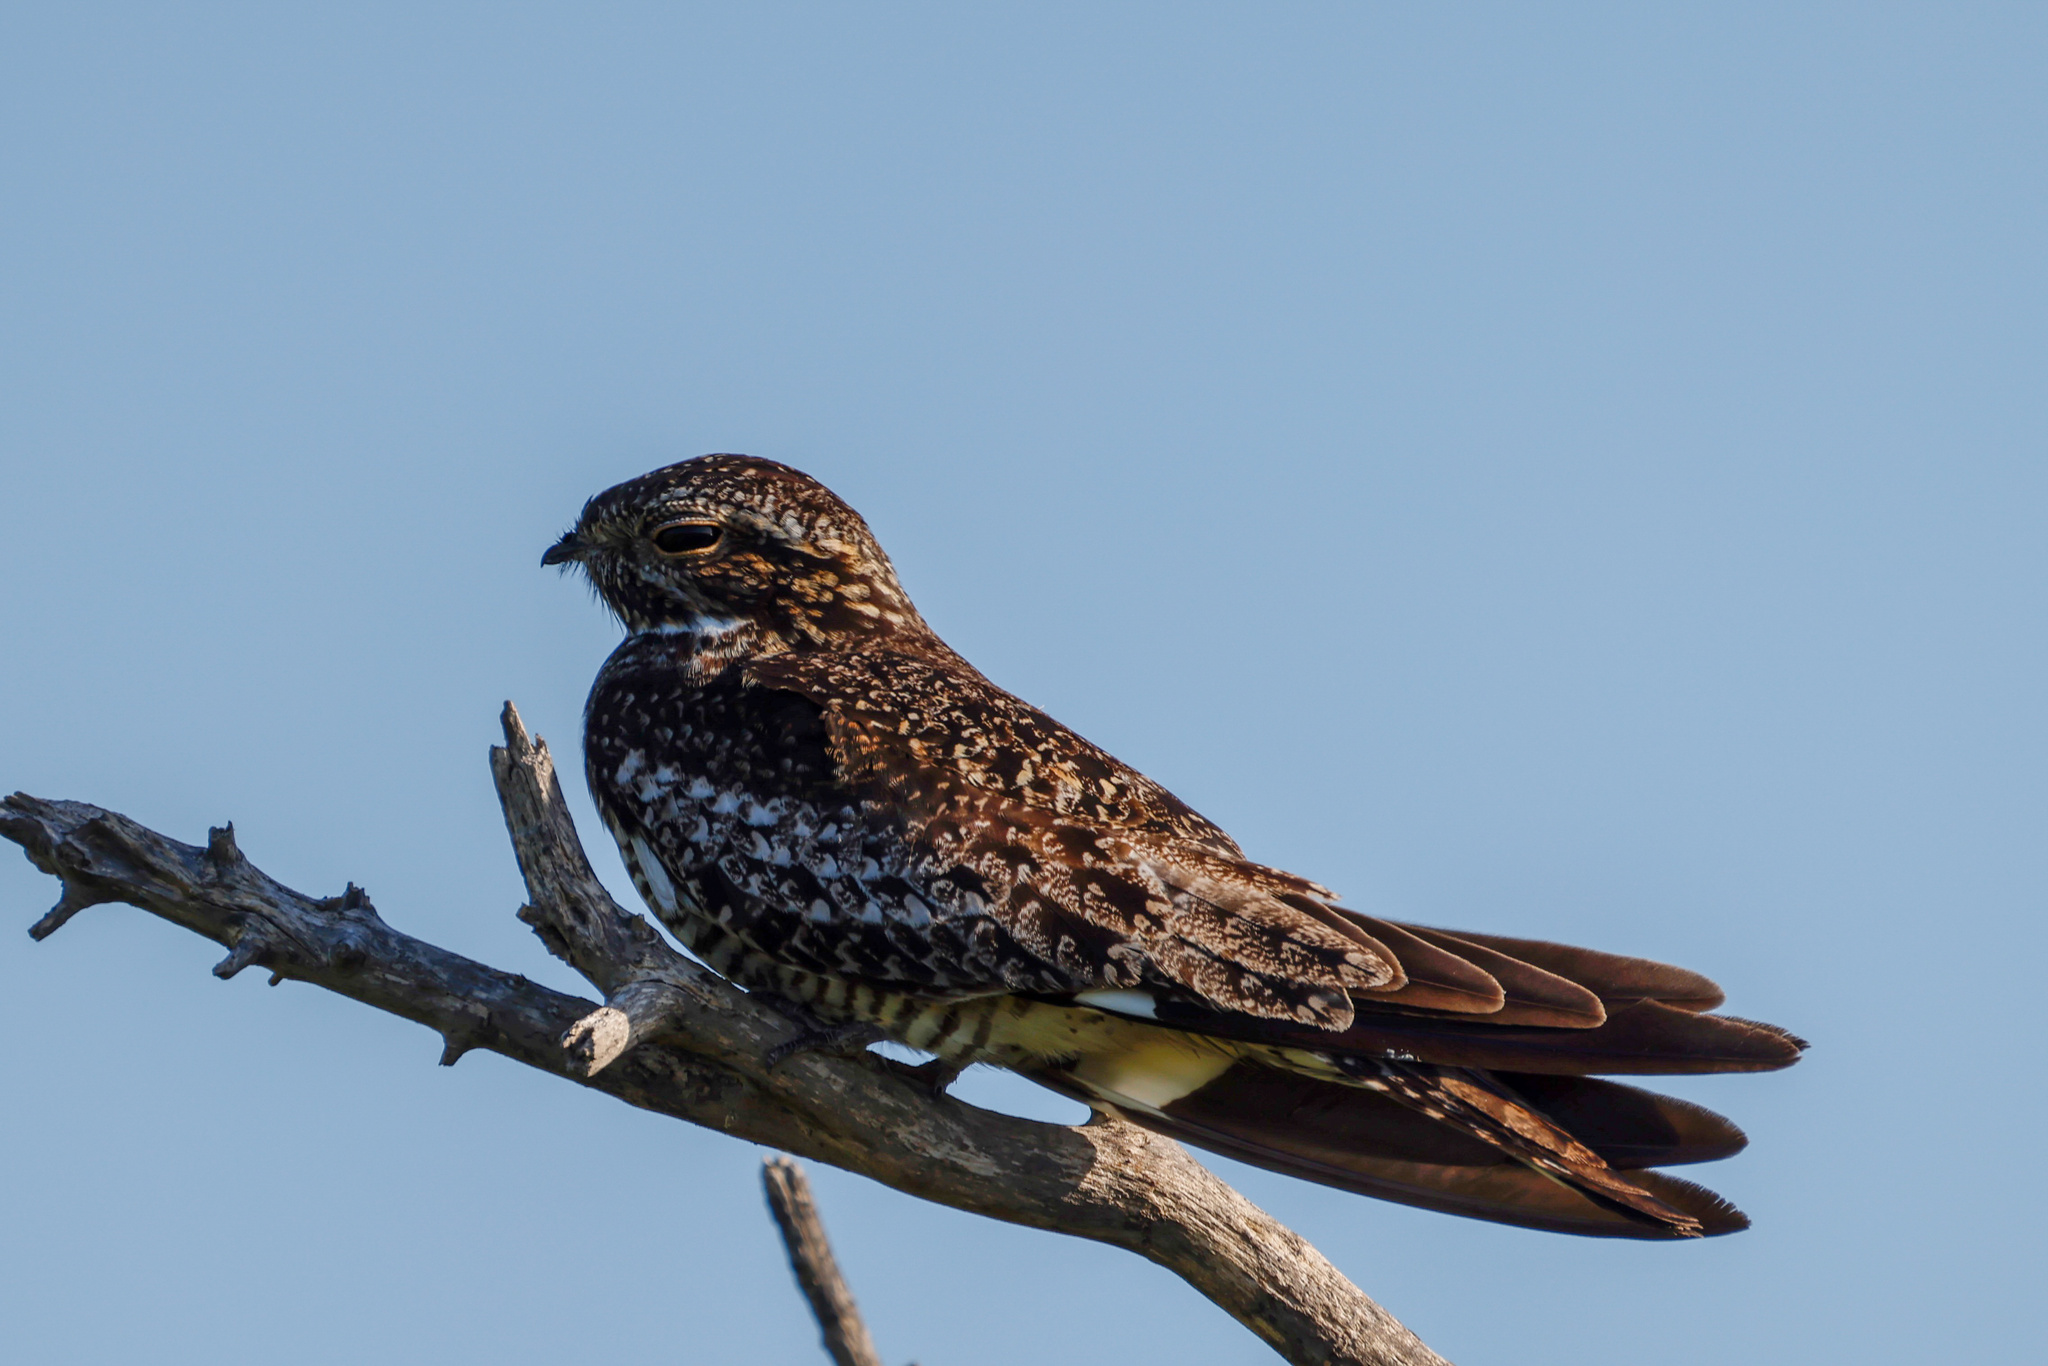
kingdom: Animalia
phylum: Chordata
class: Aves
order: Caprimulgiformes
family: Caprimulgidae
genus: Chordeiles
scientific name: Chordeiles minor
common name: Common nighthawk
